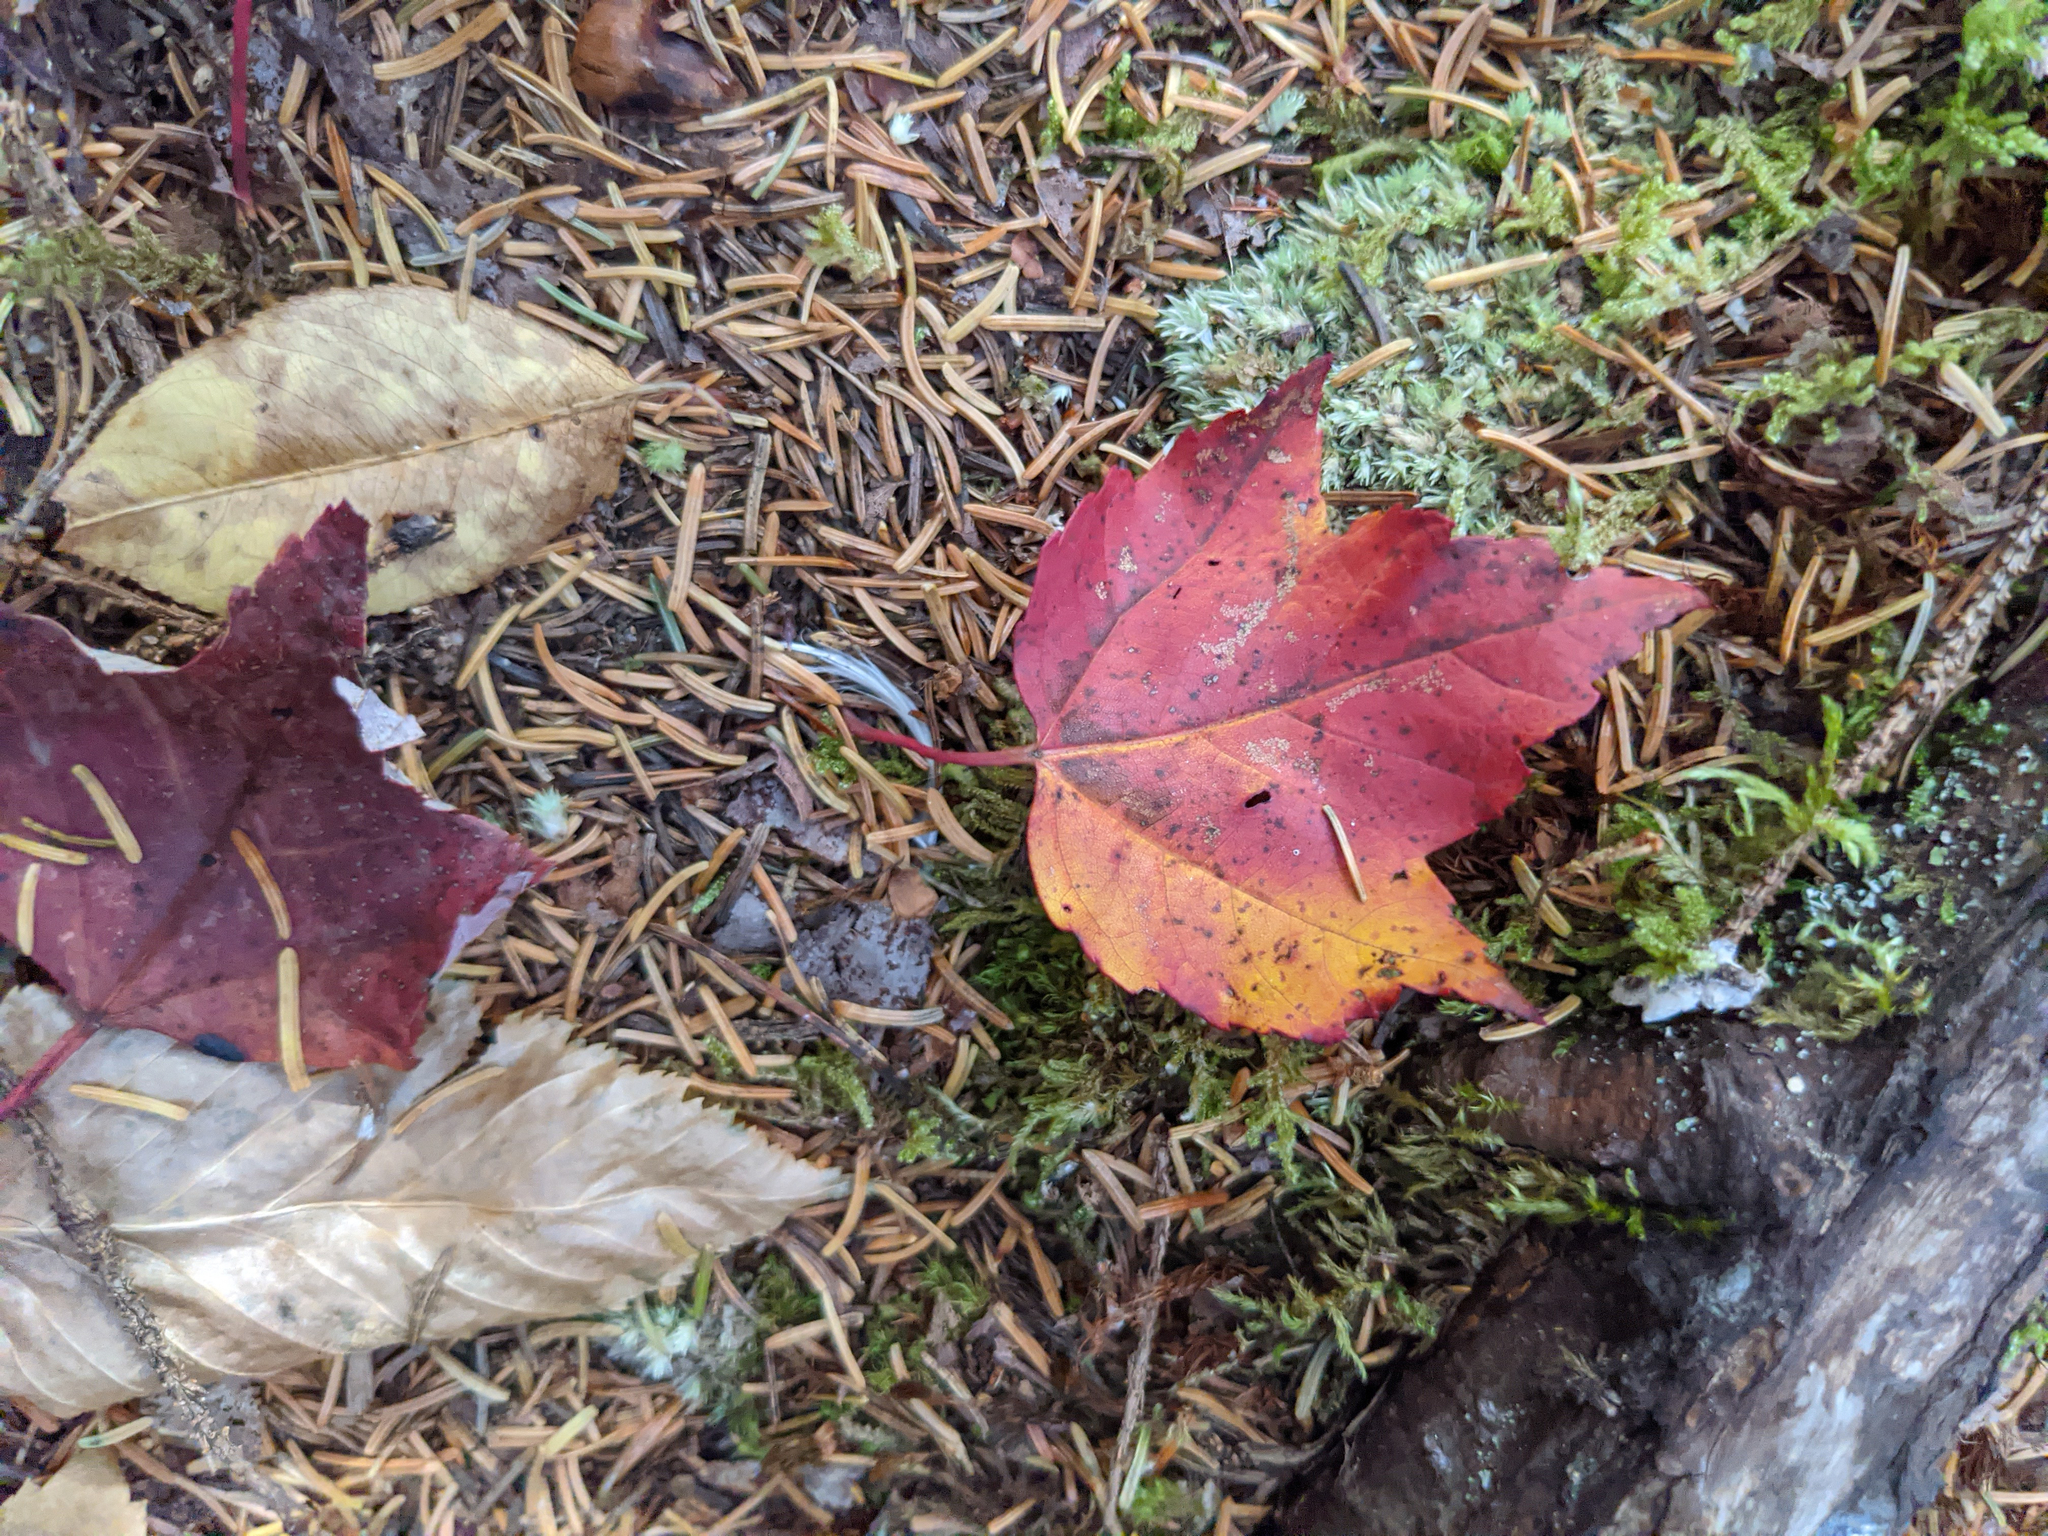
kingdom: Plantae
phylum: Tracheophyta
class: Magnoliopsida
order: Sapindales
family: Sapindaceae
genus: Acer
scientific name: Acer rubrum
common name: Red maple
